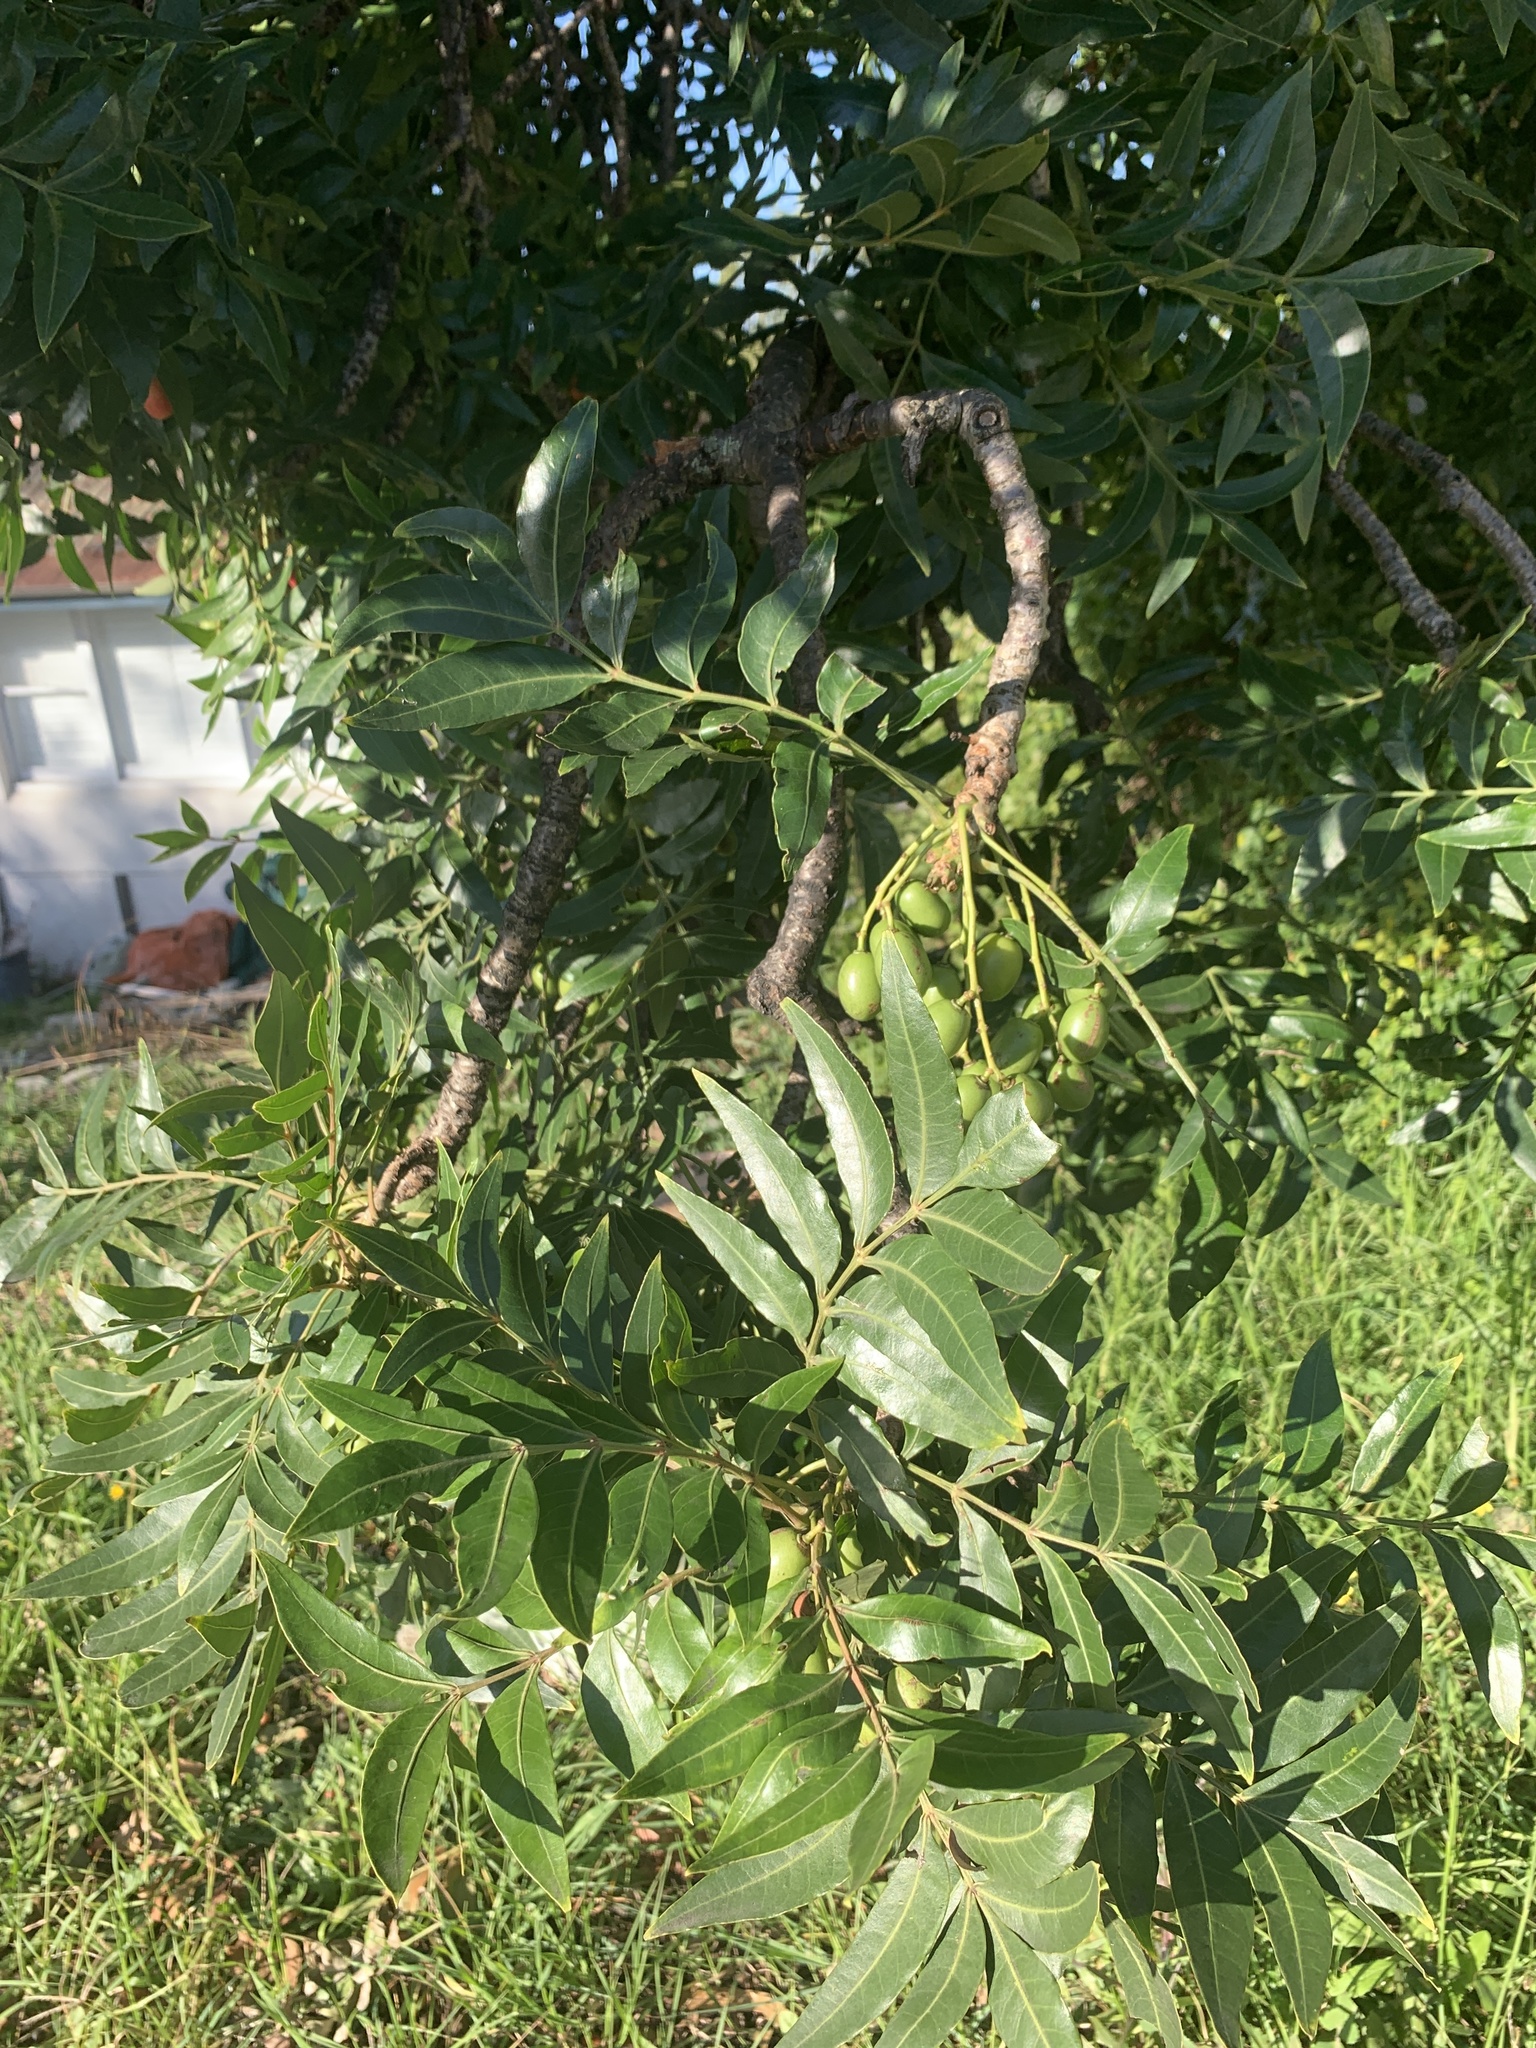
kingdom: Plantae
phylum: Tracheophyta
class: Magnoliopsida
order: Sapindales
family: Anacardiaceae
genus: Harpephyllum
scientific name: Harpephyllum caffrum
